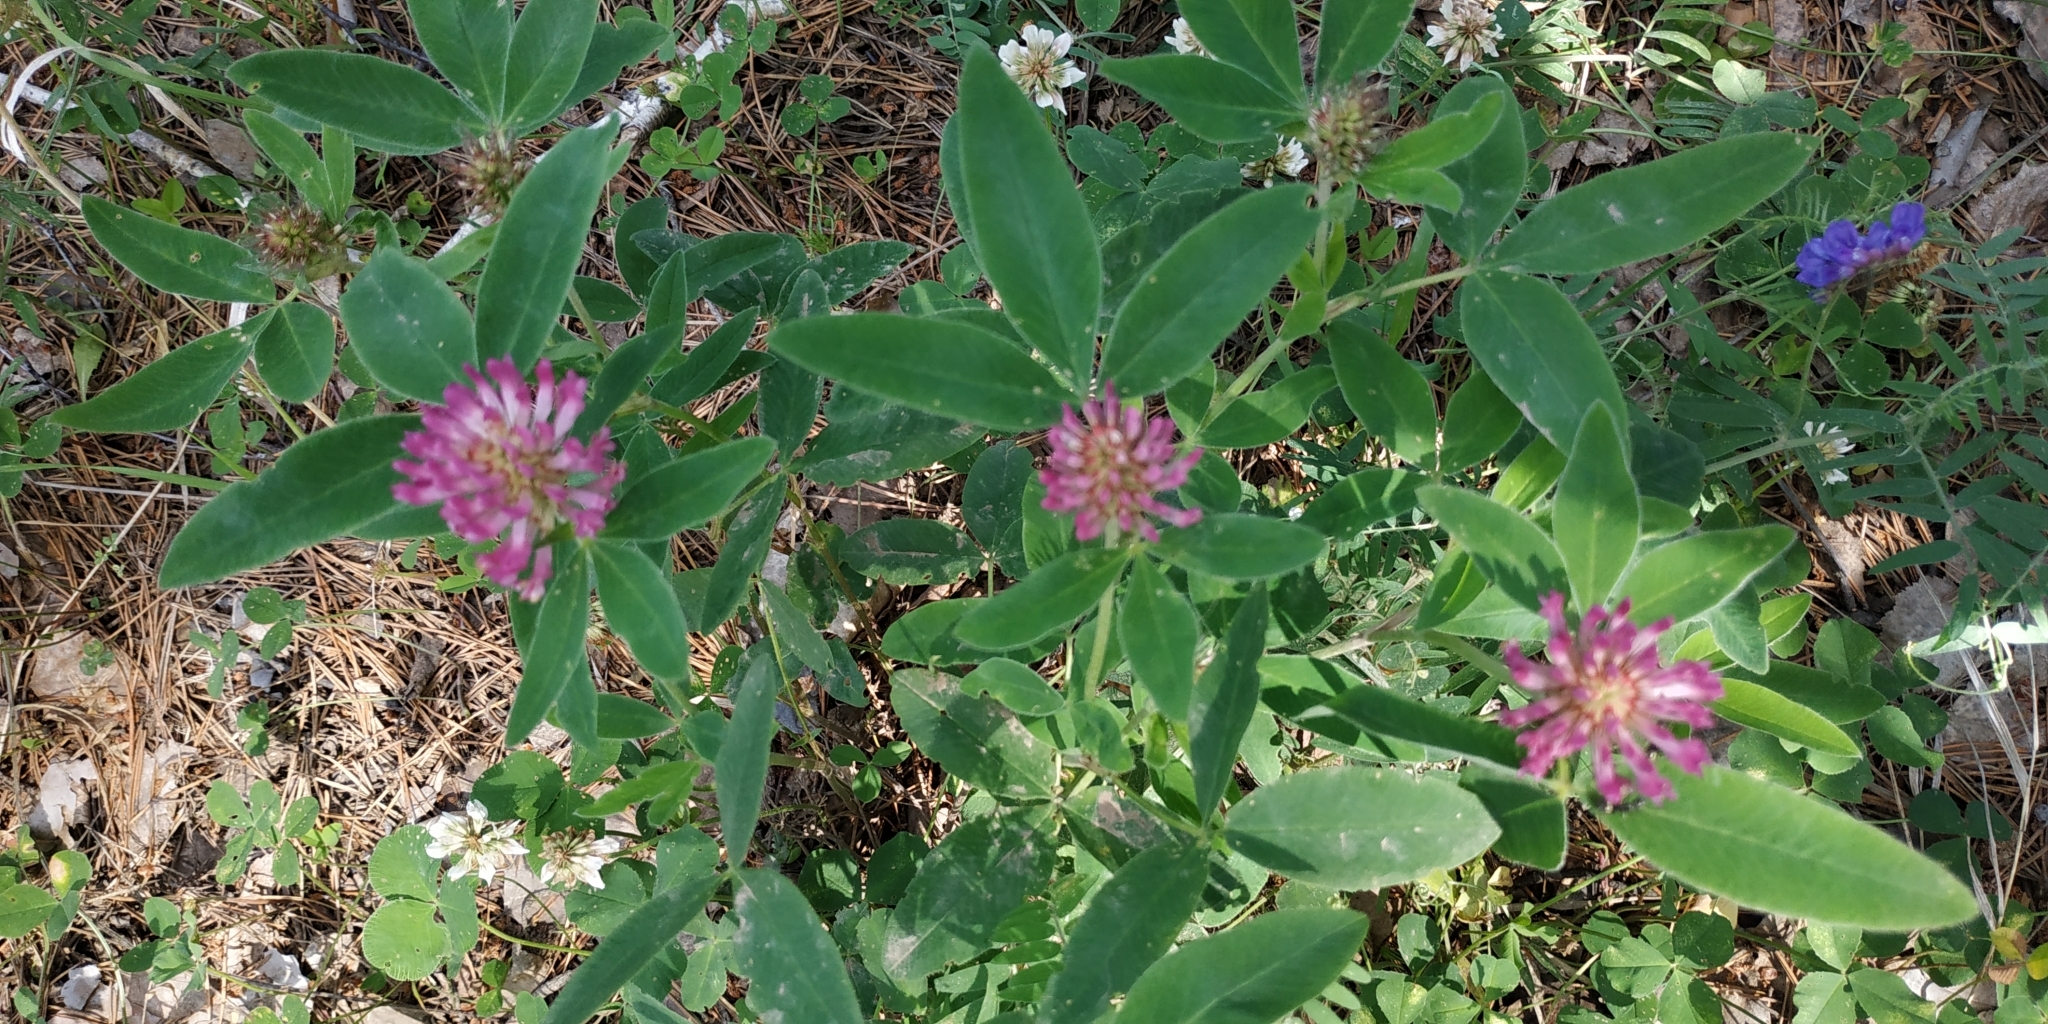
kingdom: Plantae
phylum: Tracheophyta
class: Magnoliopsida
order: Fabales
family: Fabaceae
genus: Trifolium
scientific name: Trifolium medium
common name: Zigzag clover
